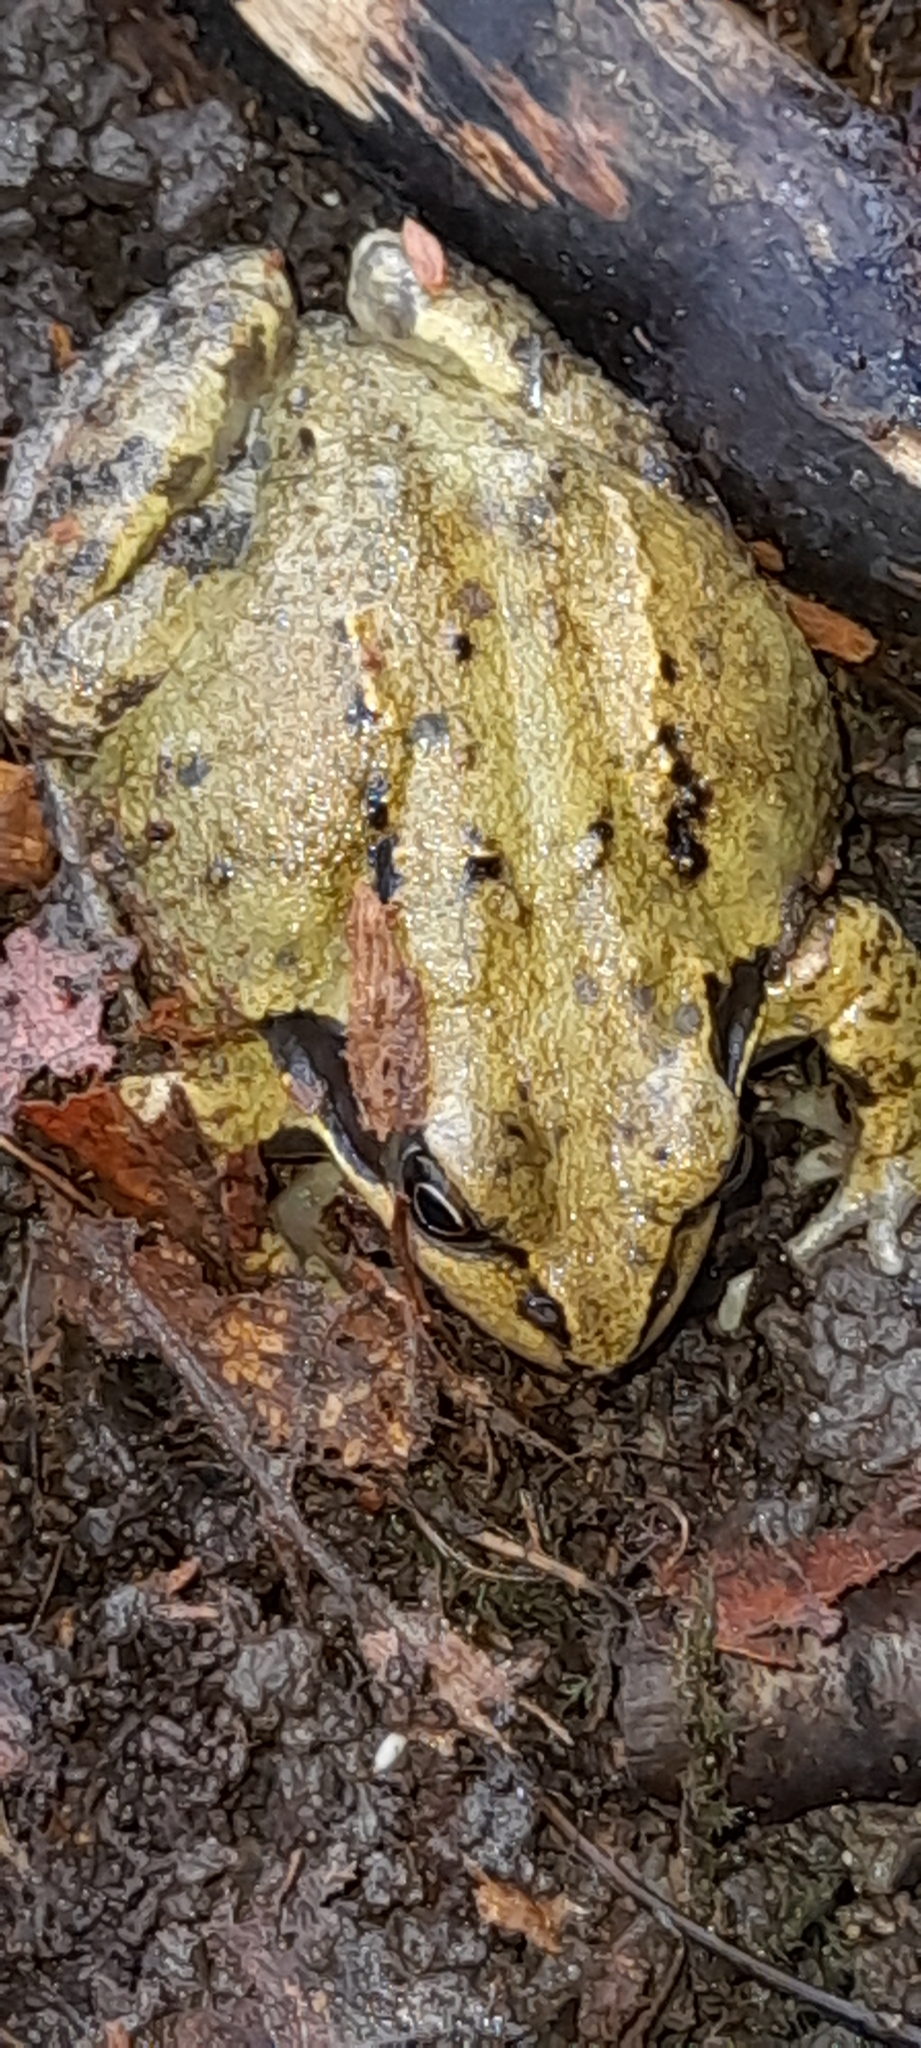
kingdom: Animalia
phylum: Chordata
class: Amphibia
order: Anura
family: Ranidae
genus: Rana
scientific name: Rana temporaria
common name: Common frog
